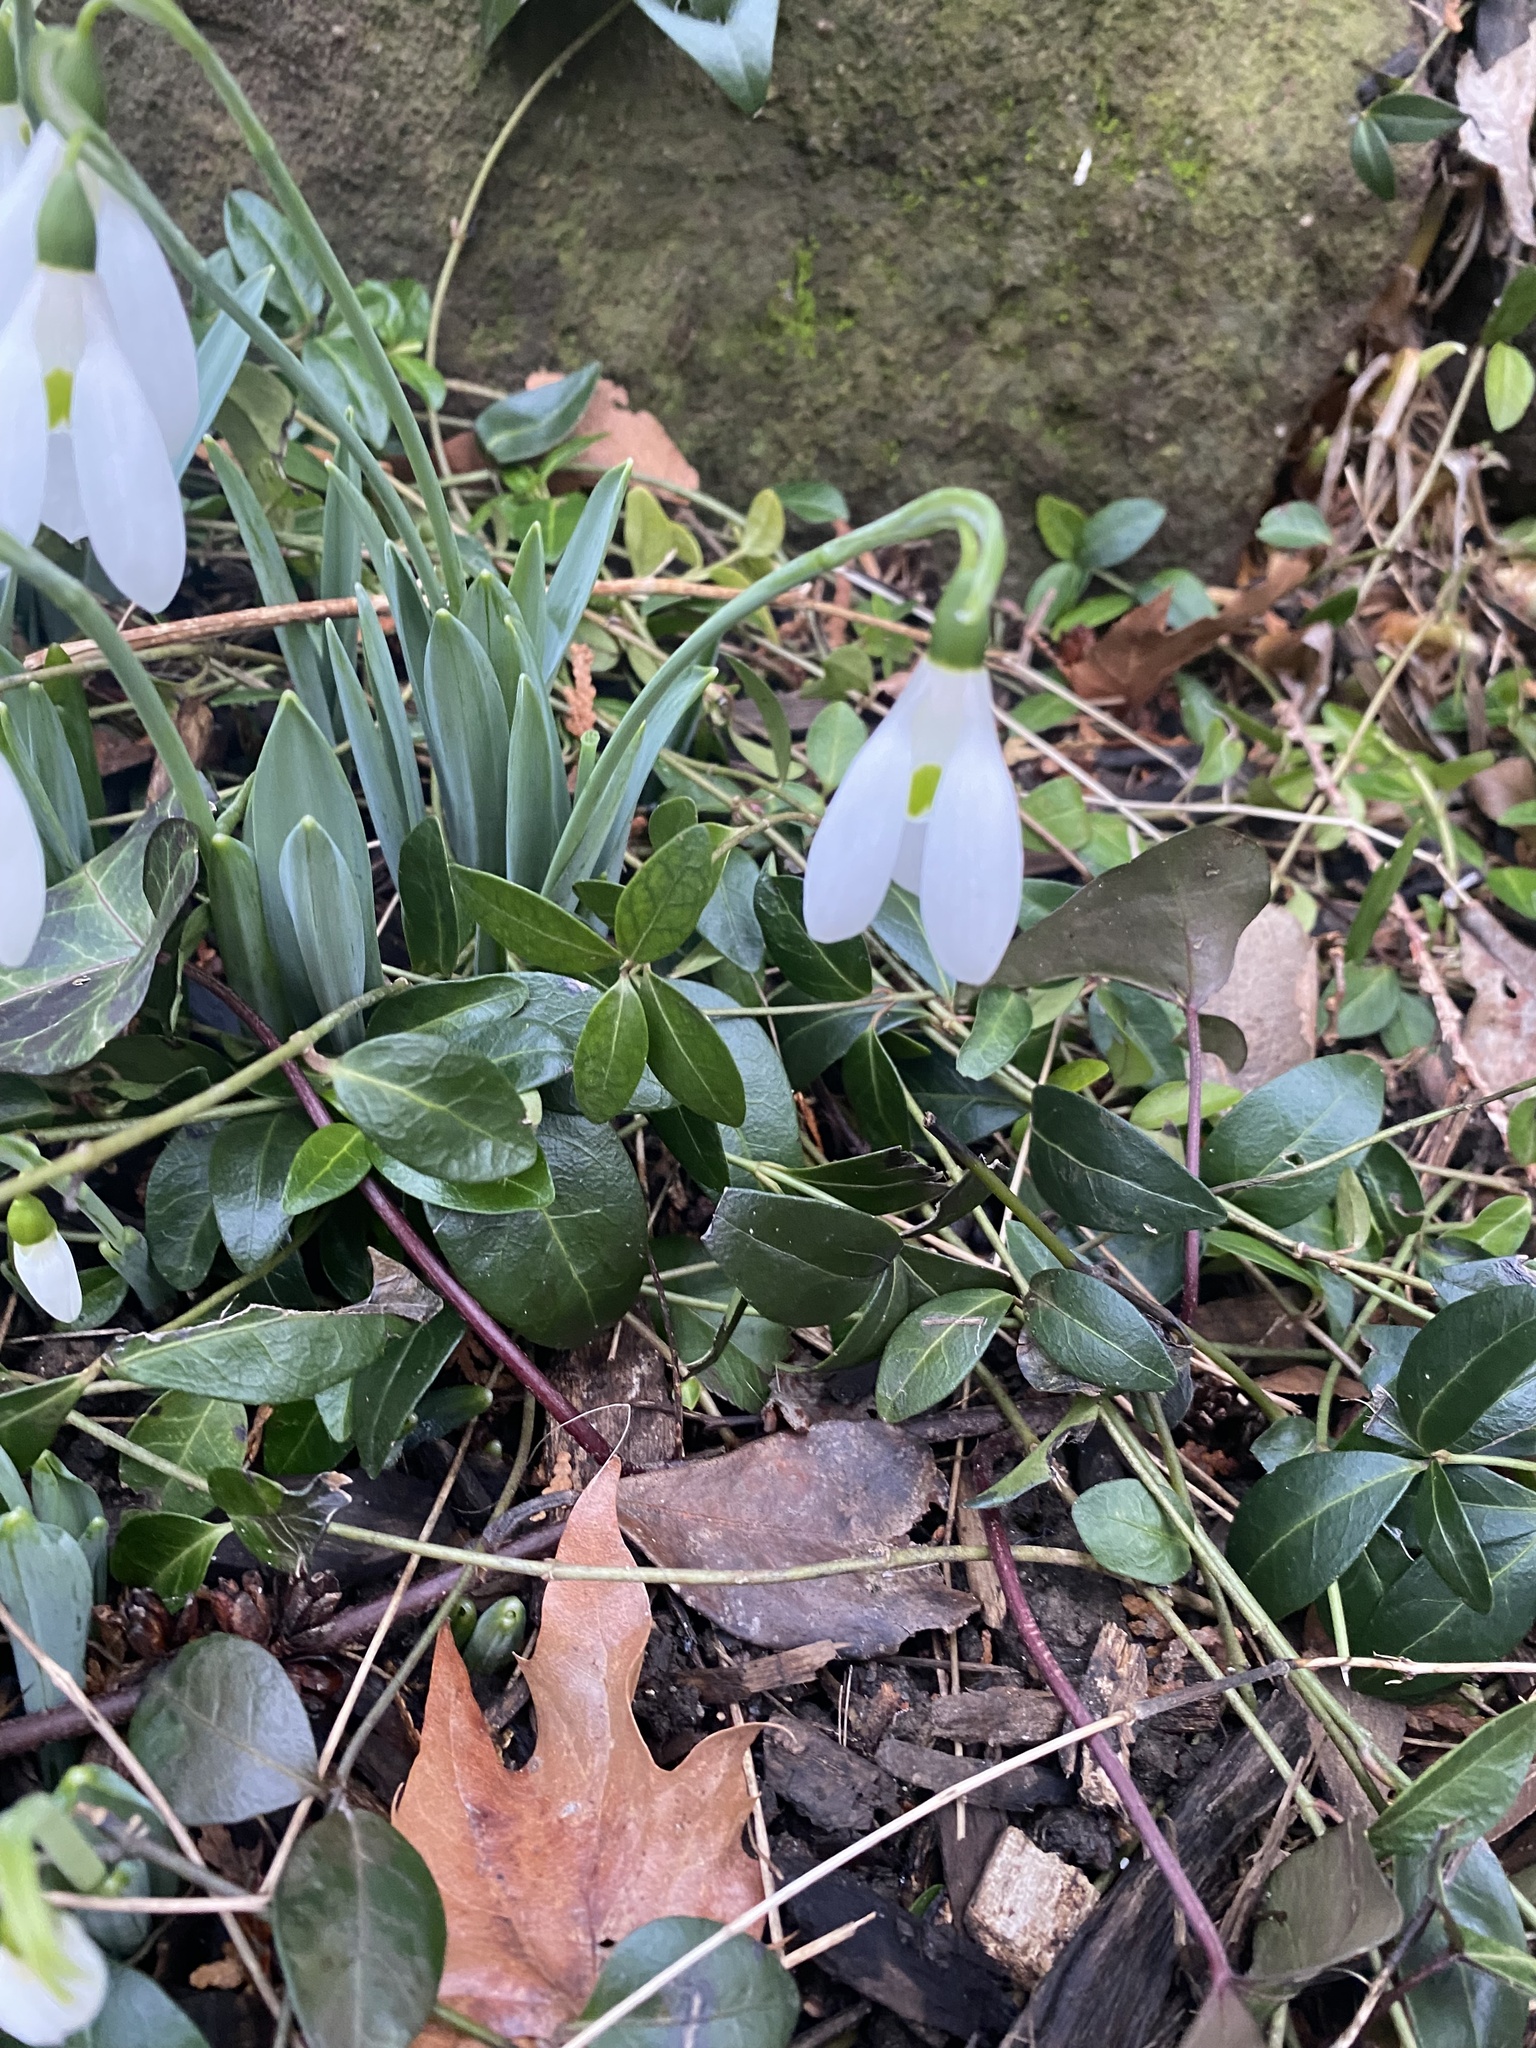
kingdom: Plantae
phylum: Tracheophyta
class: Liliopsida
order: Asparagales
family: Amaryllidaceae
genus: Galanthus
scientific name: Galanthus elwesii
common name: Greater snowdrop
